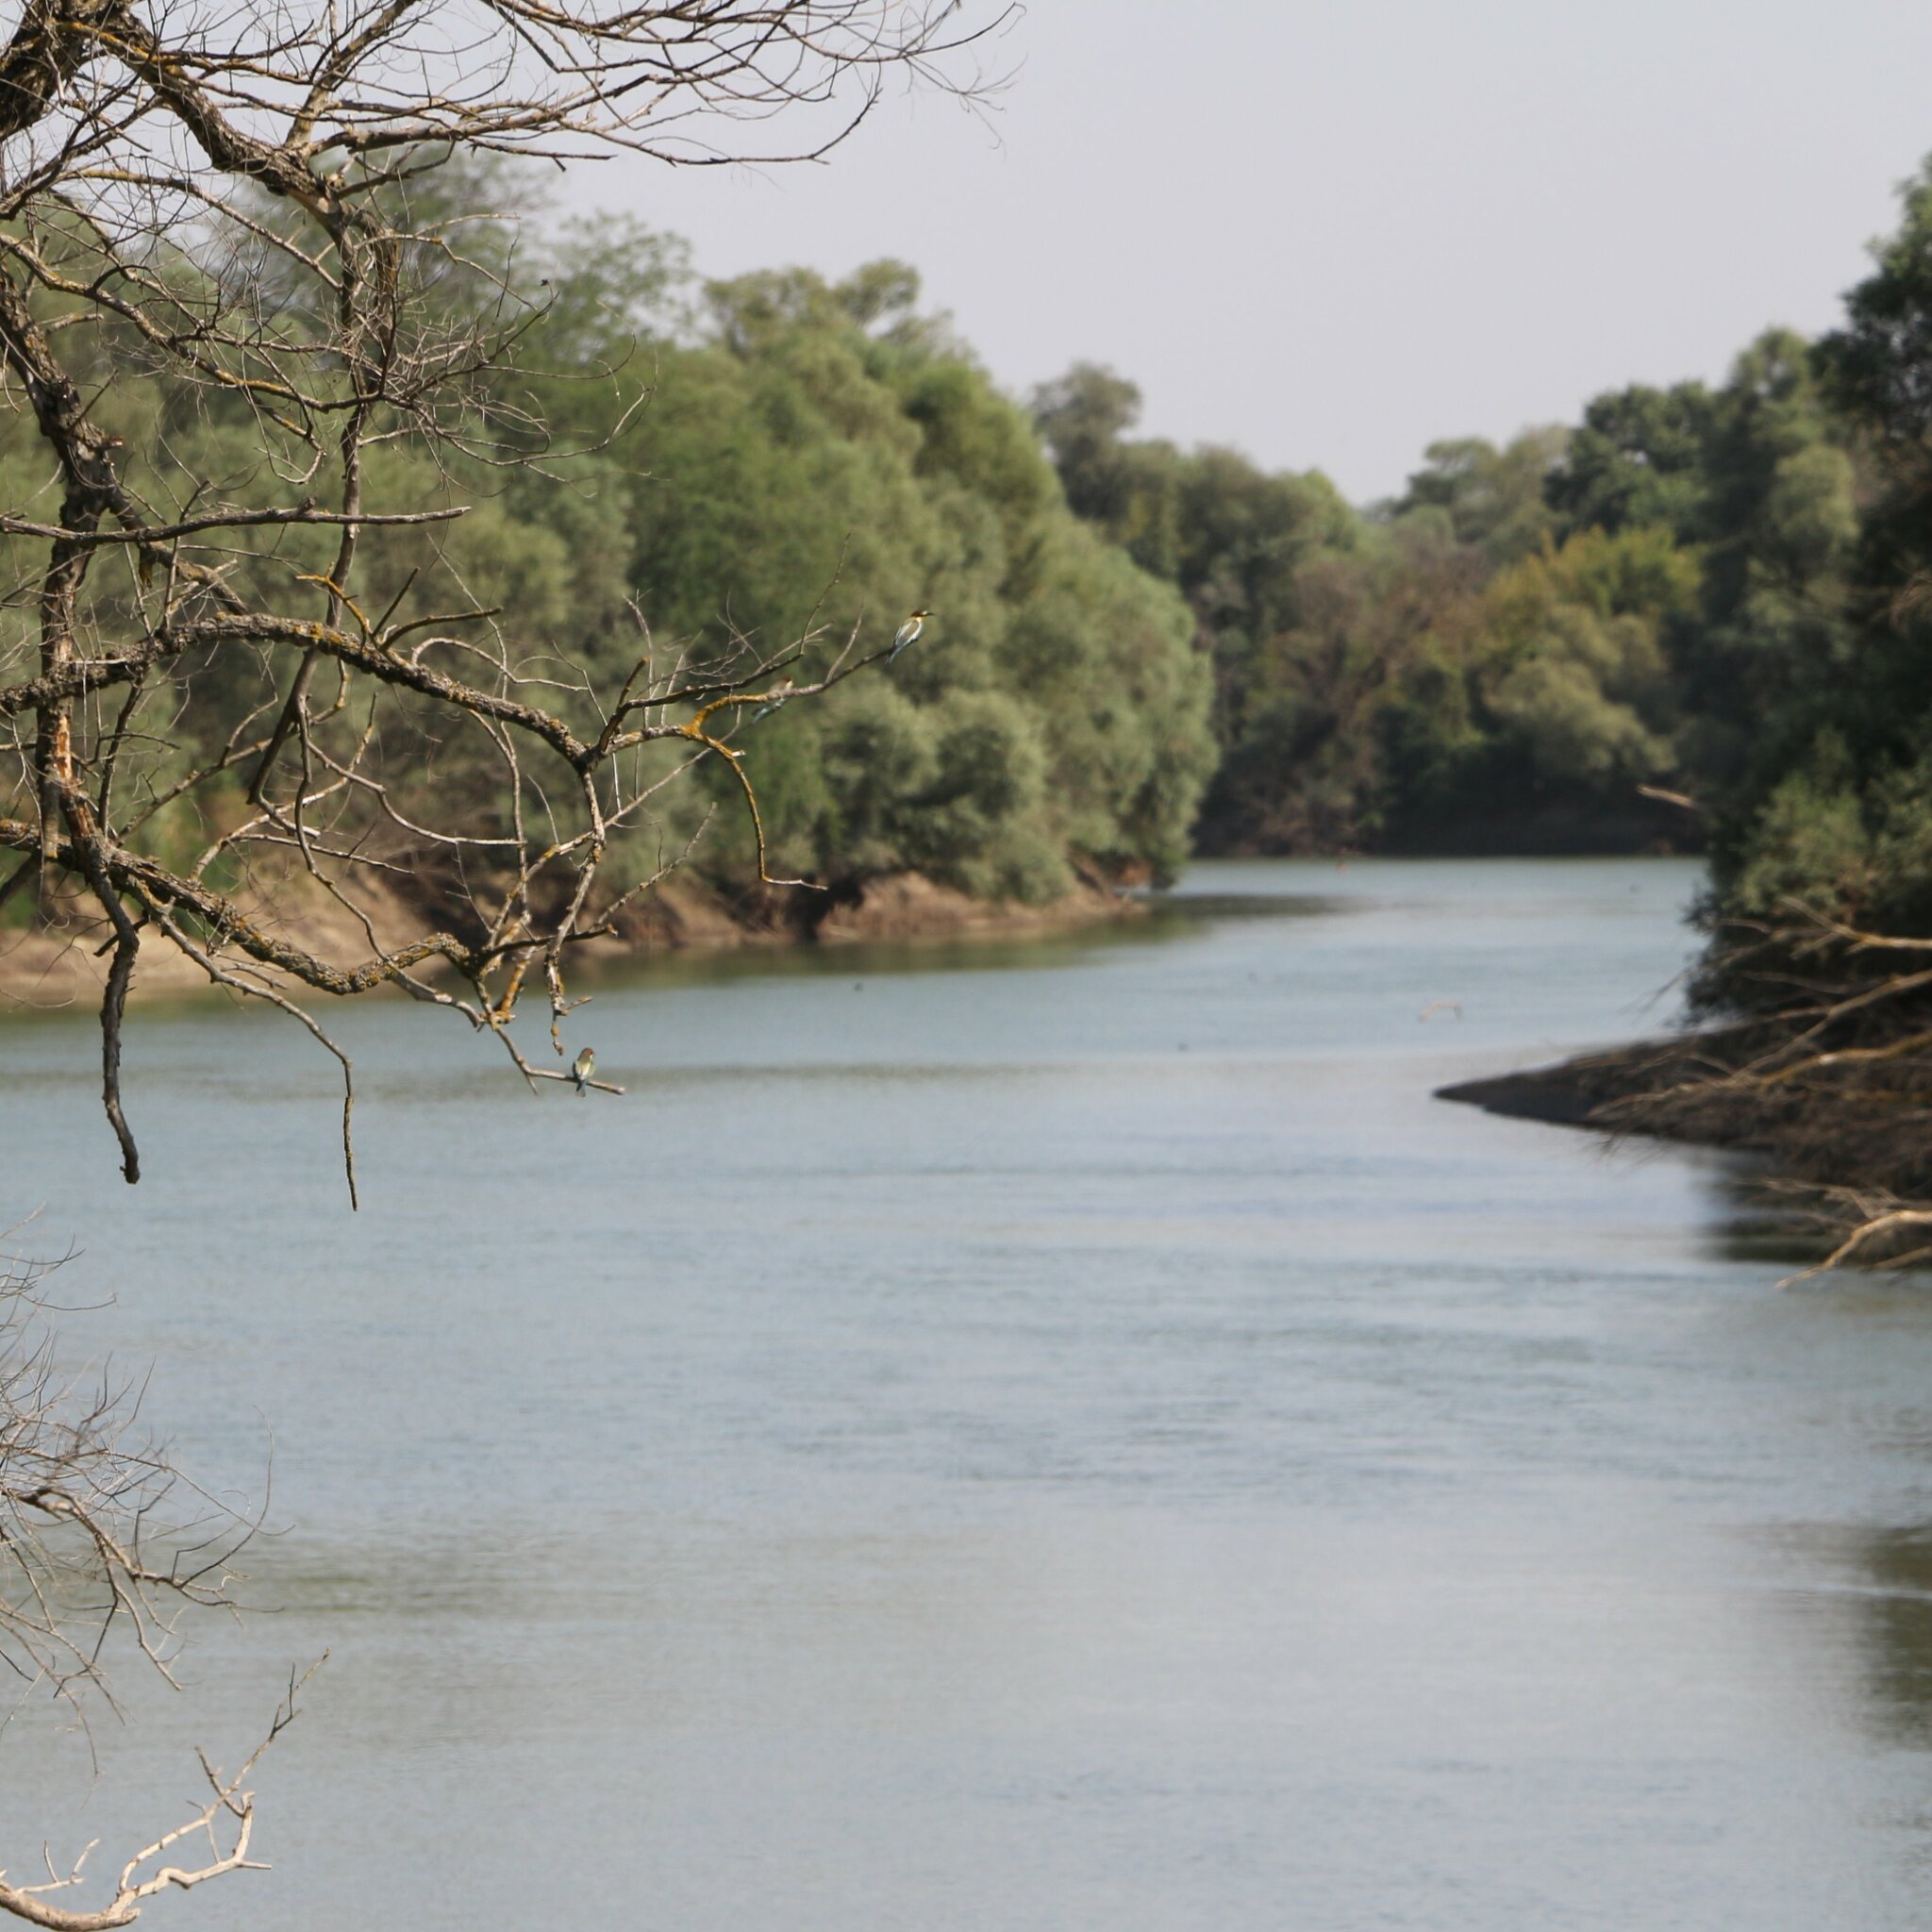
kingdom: Animalia
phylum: Chordata
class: Aves
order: Coraciiformes
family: Meropidae
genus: Merops
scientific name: Merops apiaster
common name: European bee-eater
